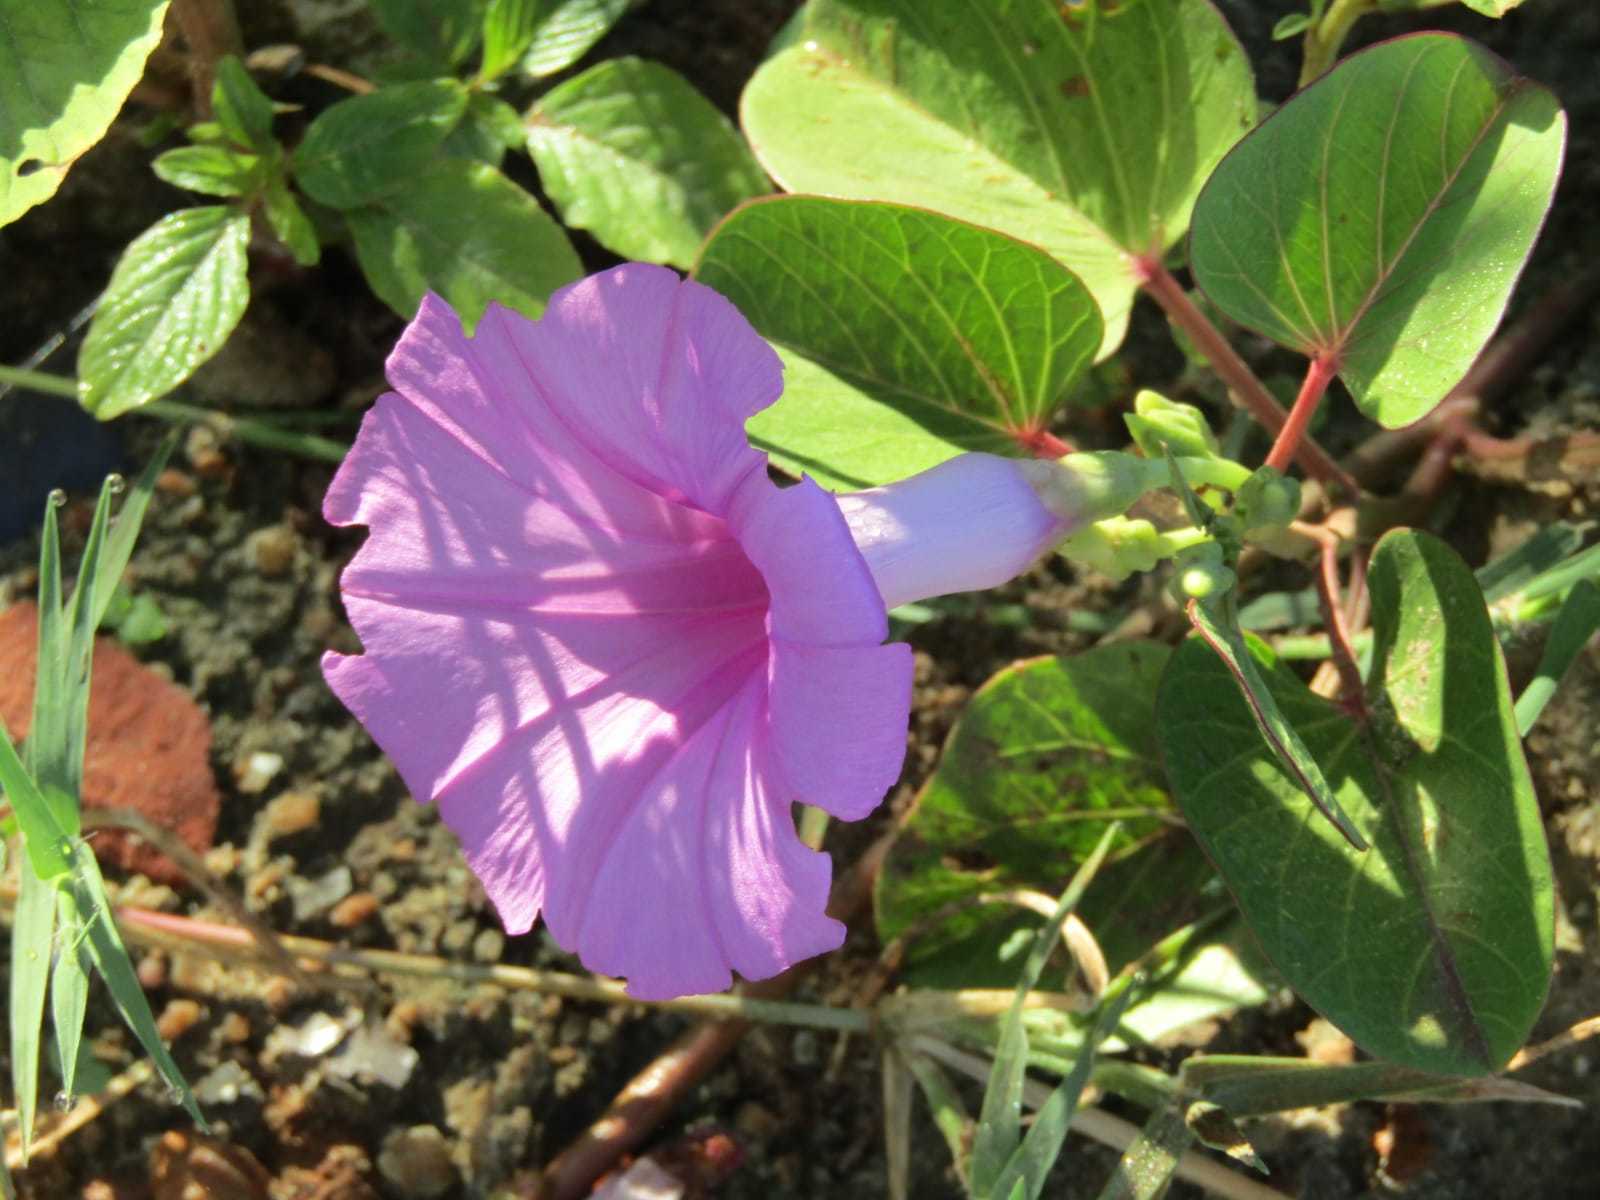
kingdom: Plantae
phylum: Tracheophyta
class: Magnoliopsida
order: Solanales
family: Convolvulaceae
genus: Ipomoea
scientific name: Ipomoea asarifolia
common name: Ginger-leaf morning-glory
